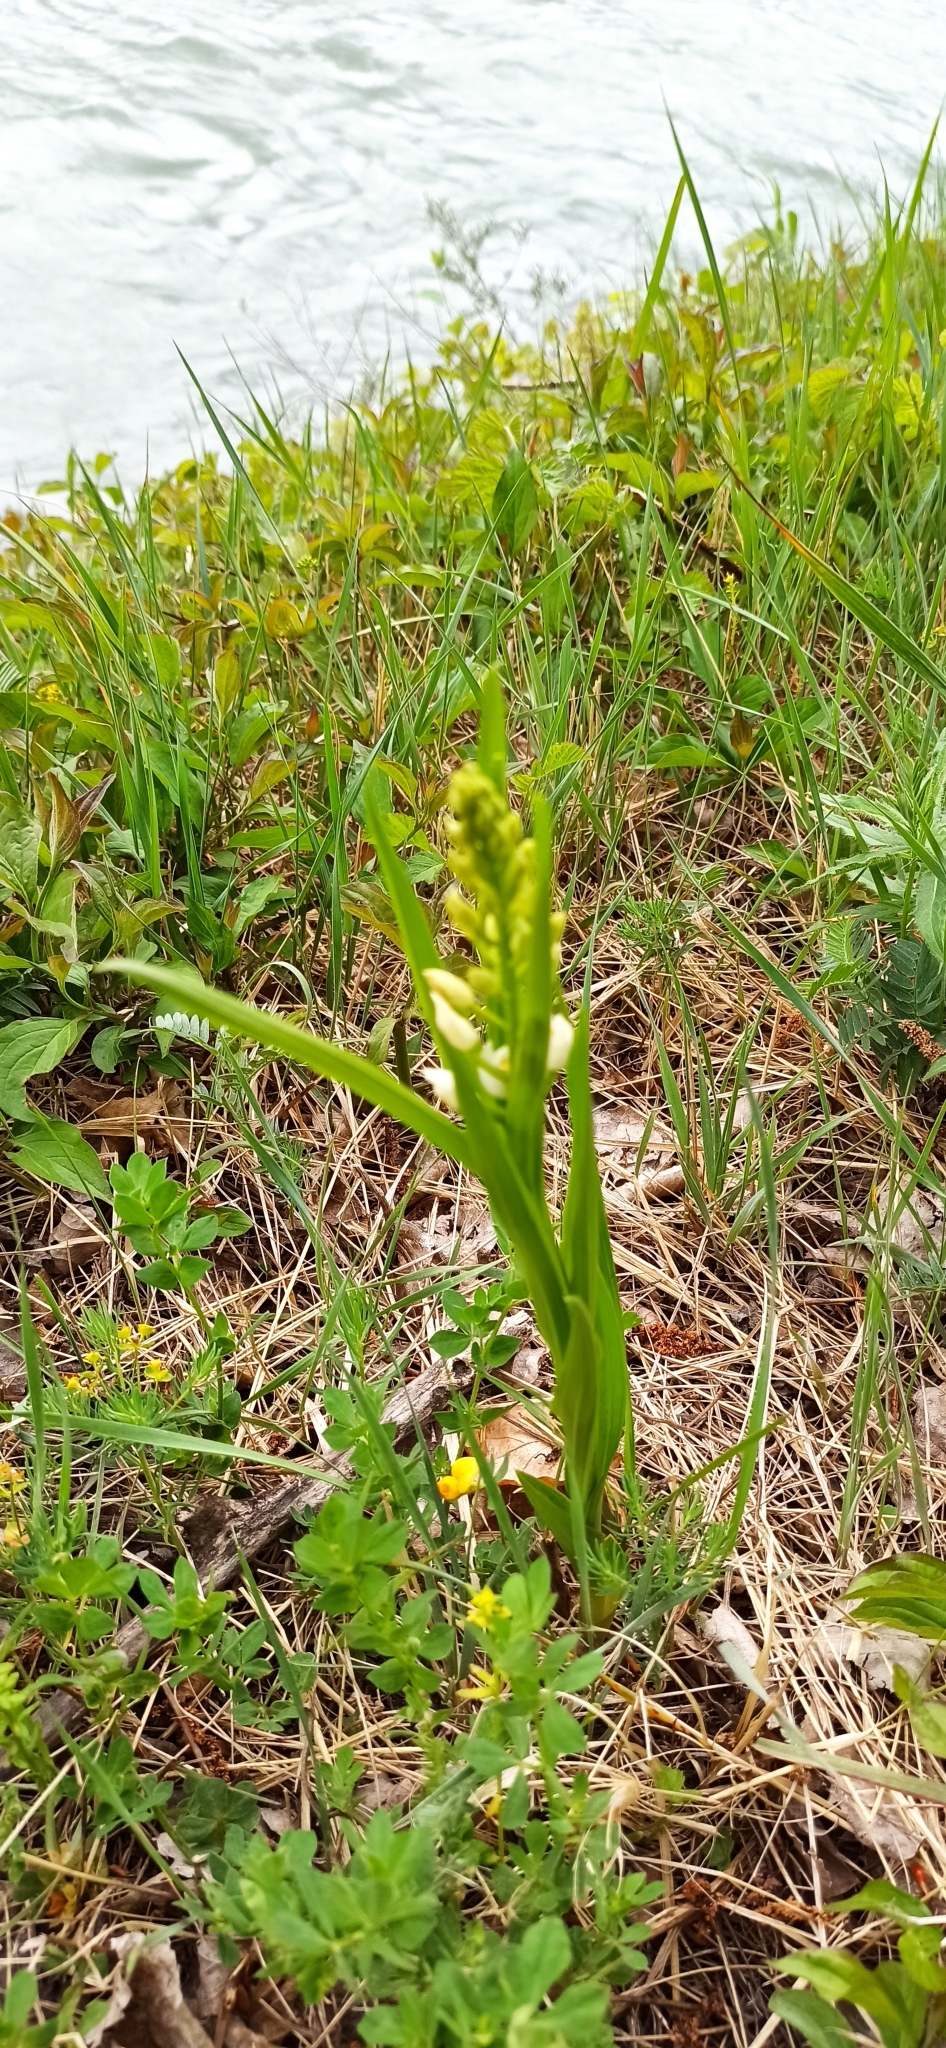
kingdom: Plantae
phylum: Tracheophyta
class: Liliopsida
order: Asparagales
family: Orchidaceae
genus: Cephalanthera
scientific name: Cephalanthera longifolia
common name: Narrow-leaved helleborine
